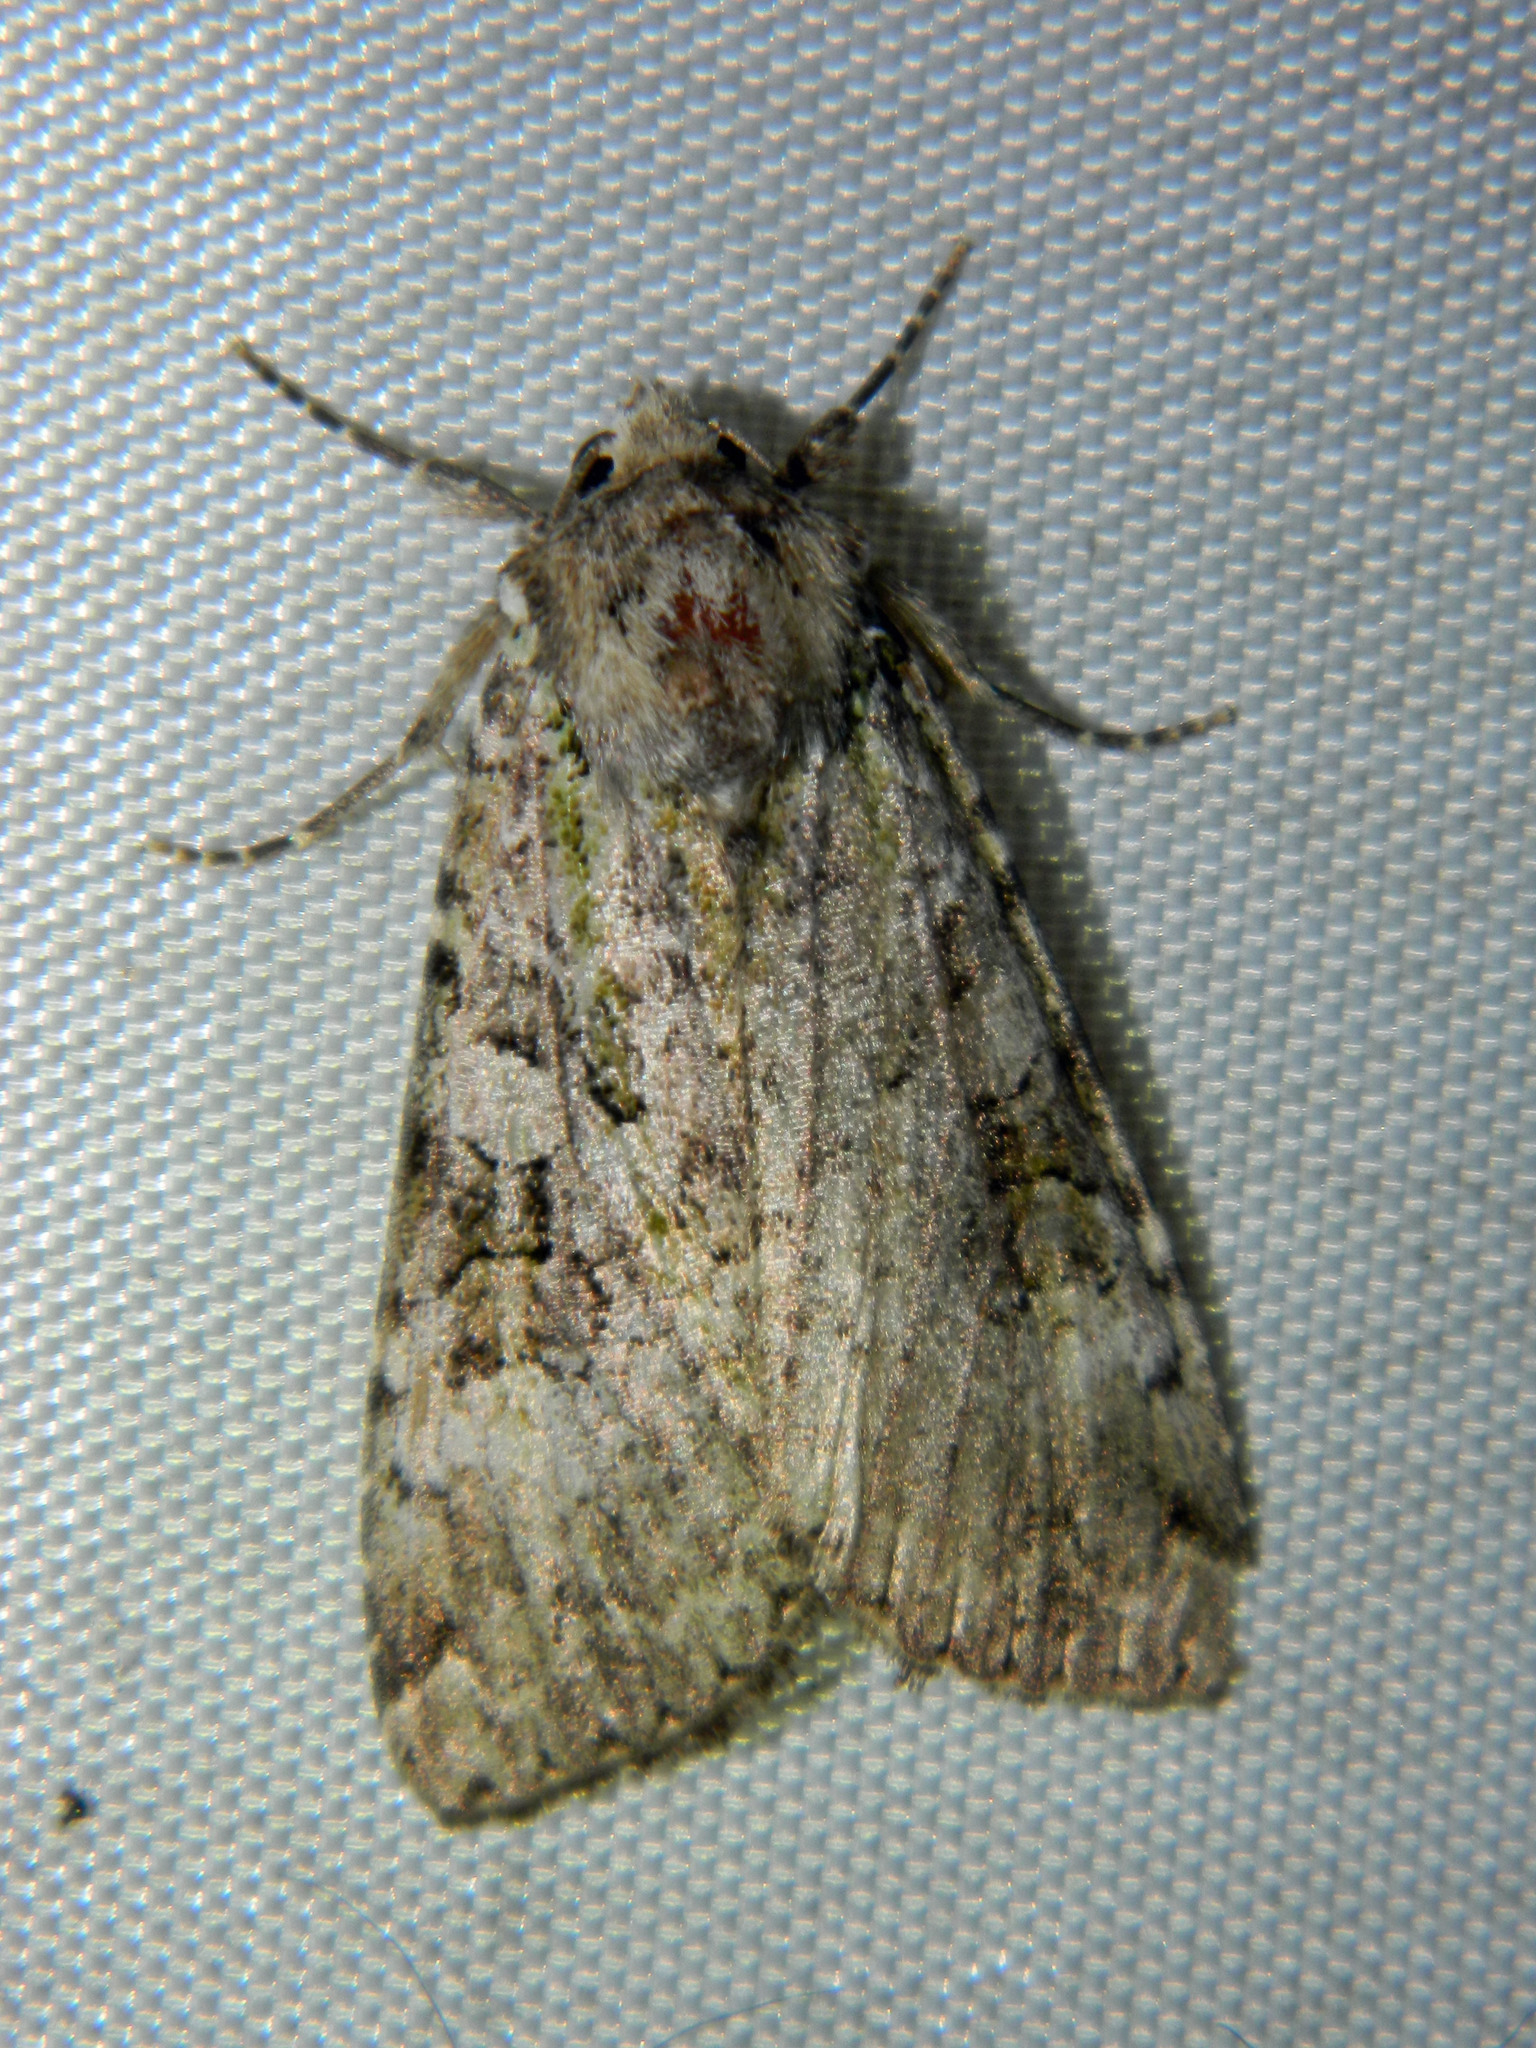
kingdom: Animalia
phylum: Arthropoda
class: Insecta
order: Lepidoptera
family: Noctuidae
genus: Anaplectoides
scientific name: Anaplectoides prasina
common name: Green arches
